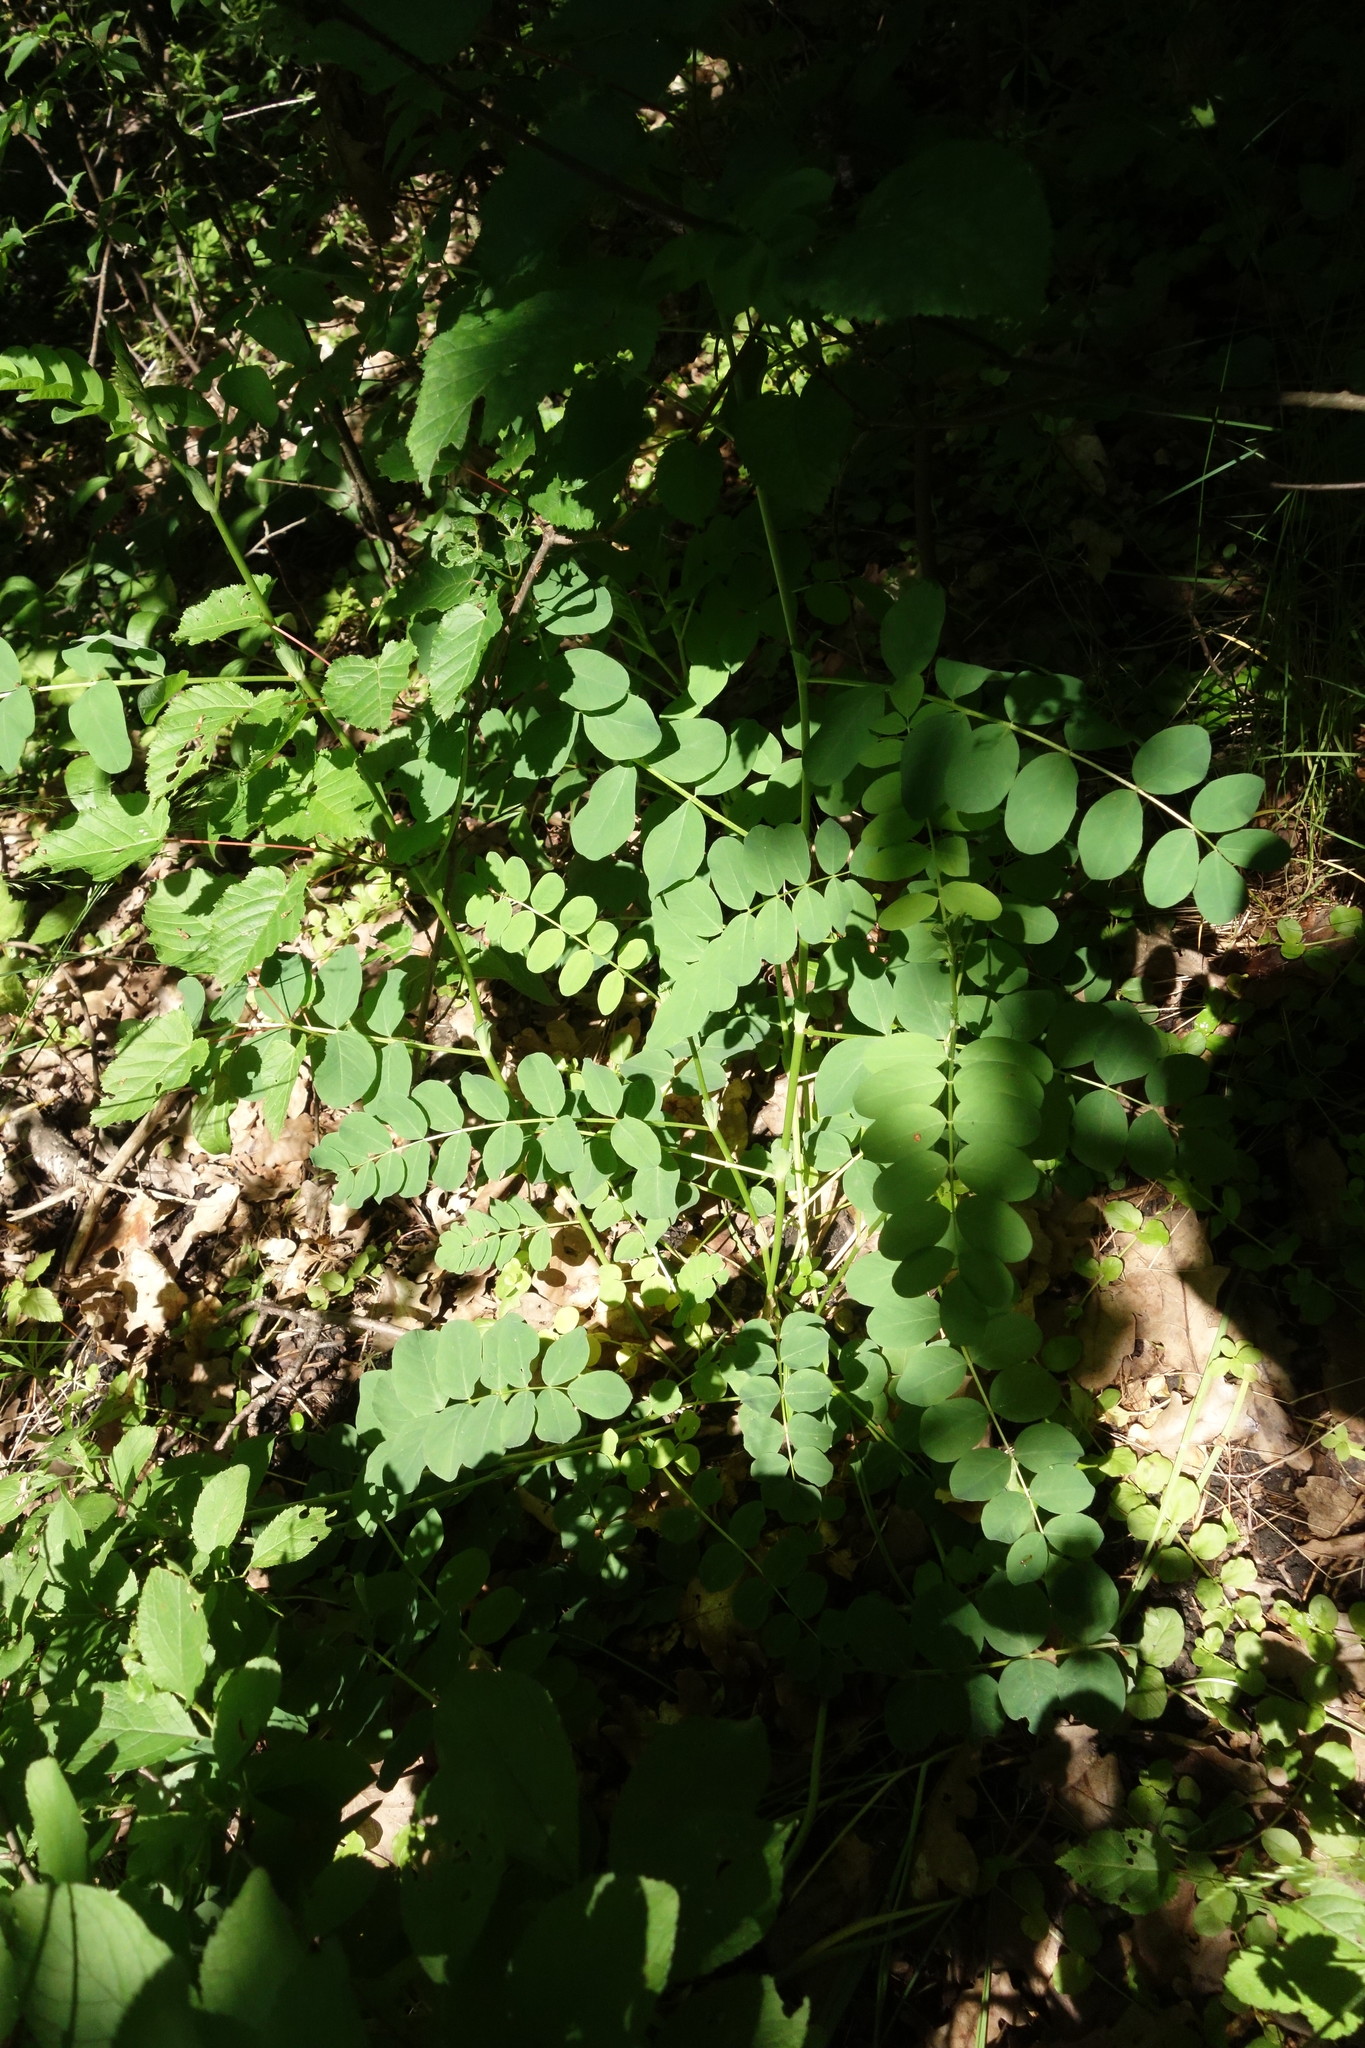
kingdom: Plantae
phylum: Tracheophyta
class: Magnoliopsida
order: Fabales
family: Fabaceae
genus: Astragalus
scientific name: Astragalus glycyphyllos
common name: Wild liquorice
